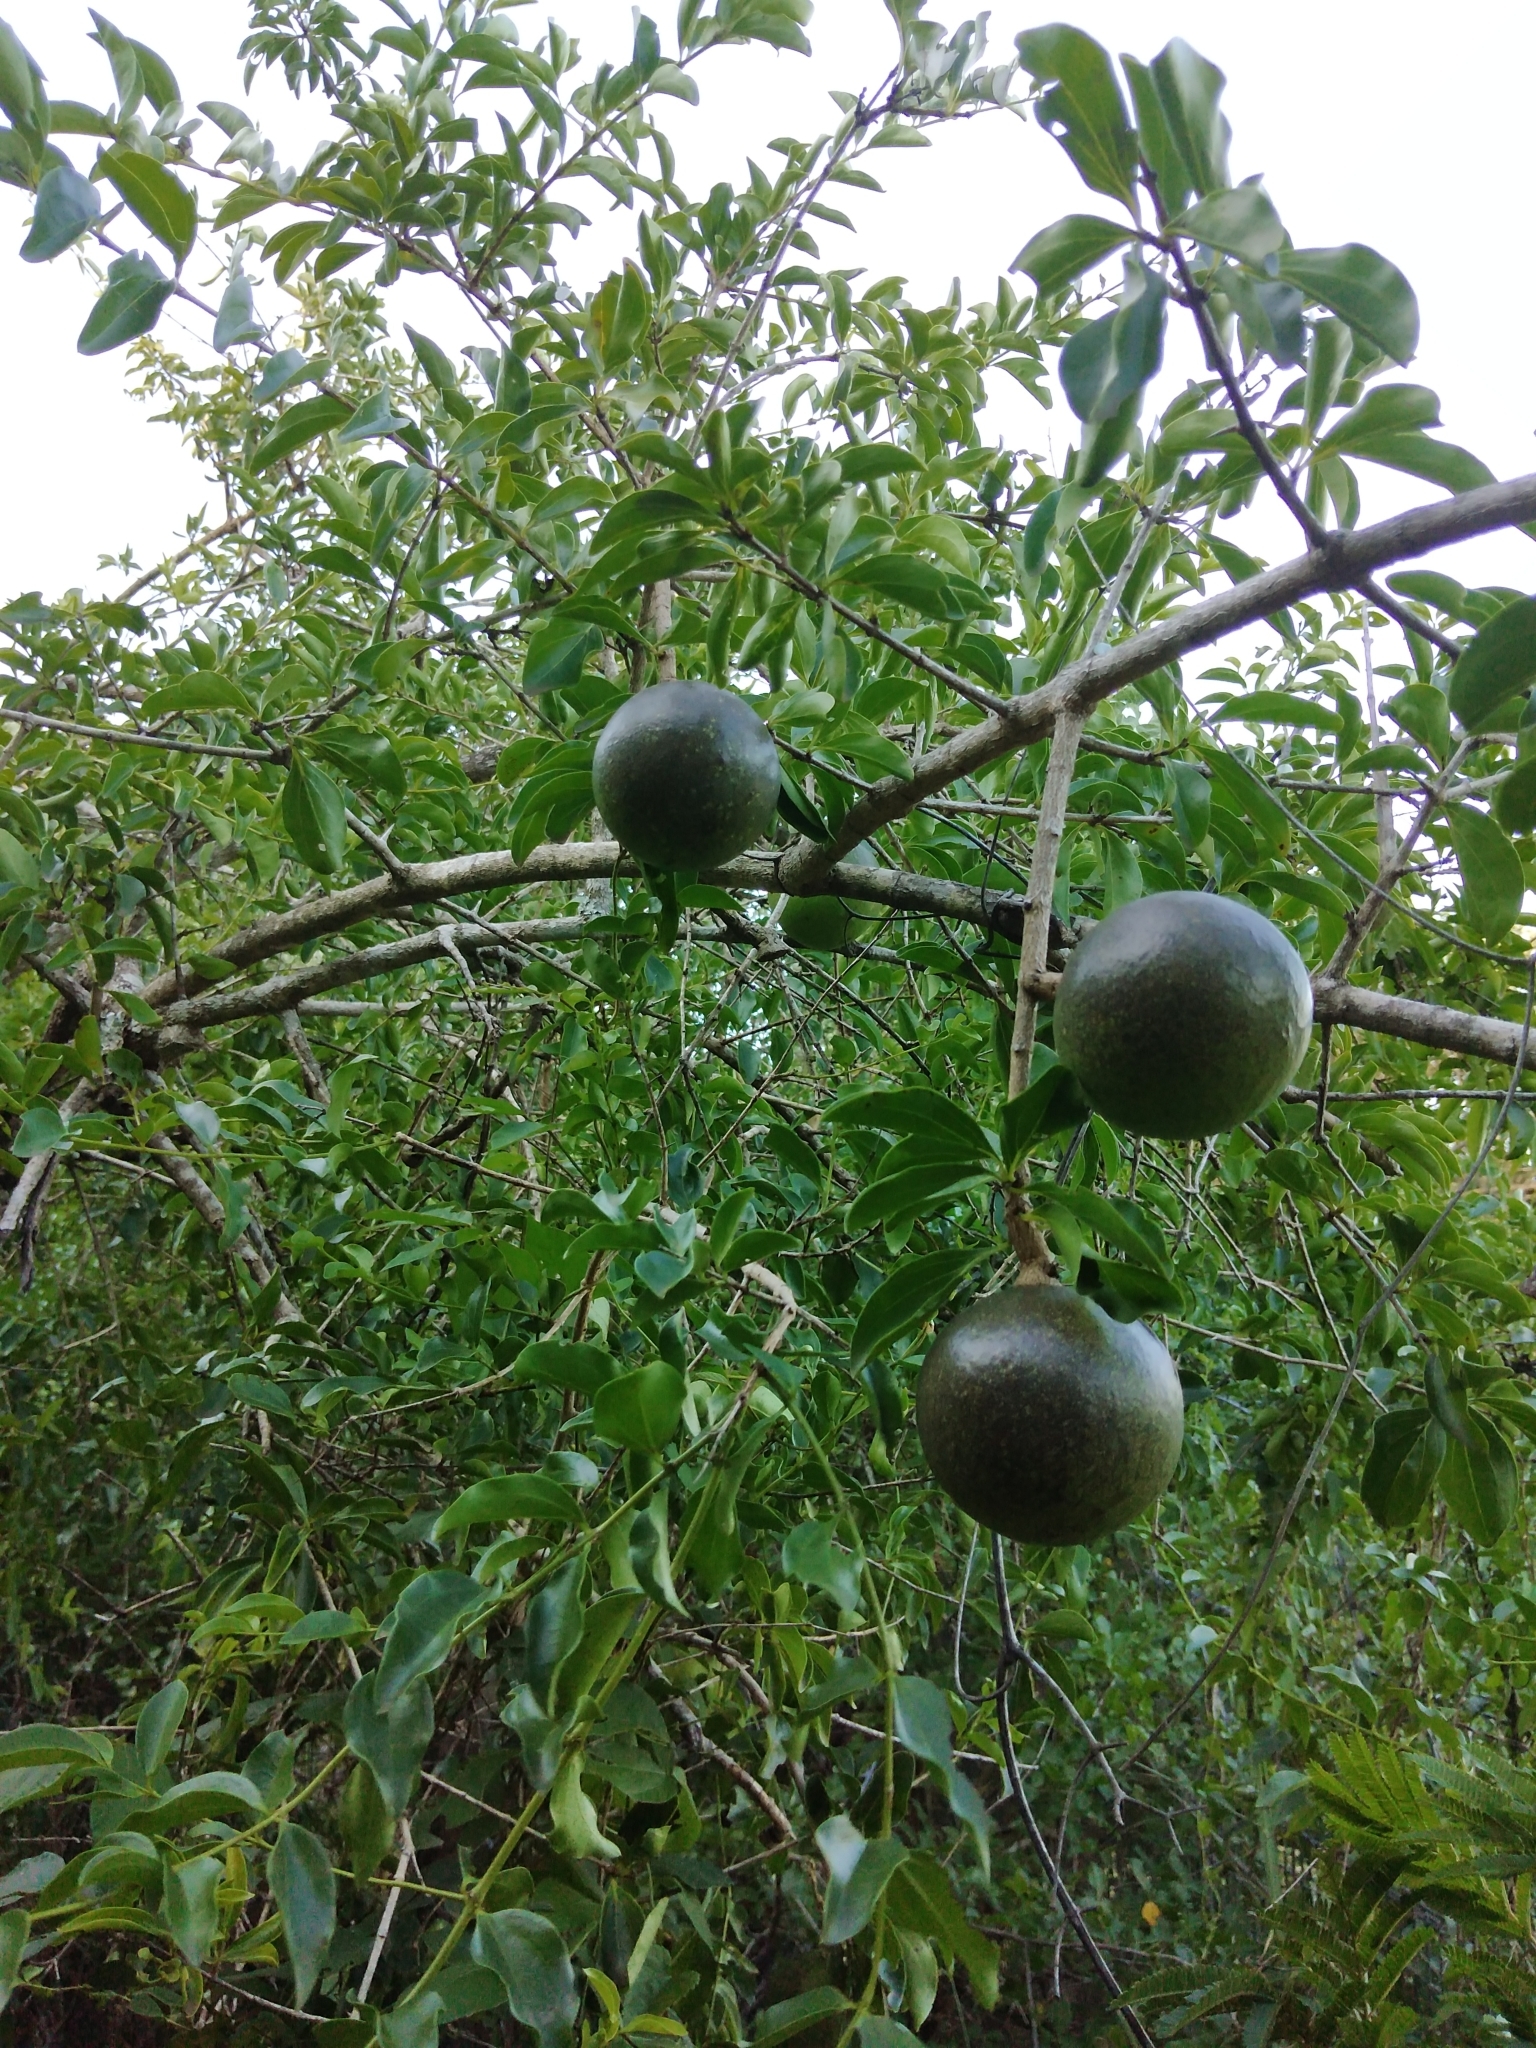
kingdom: Plantae
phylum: Tracheophyta
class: Magnoliopsida
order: Gentianales
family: Loganiaceae
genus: Strychnos
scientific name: Strychnos spinosa
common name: Natal orange
